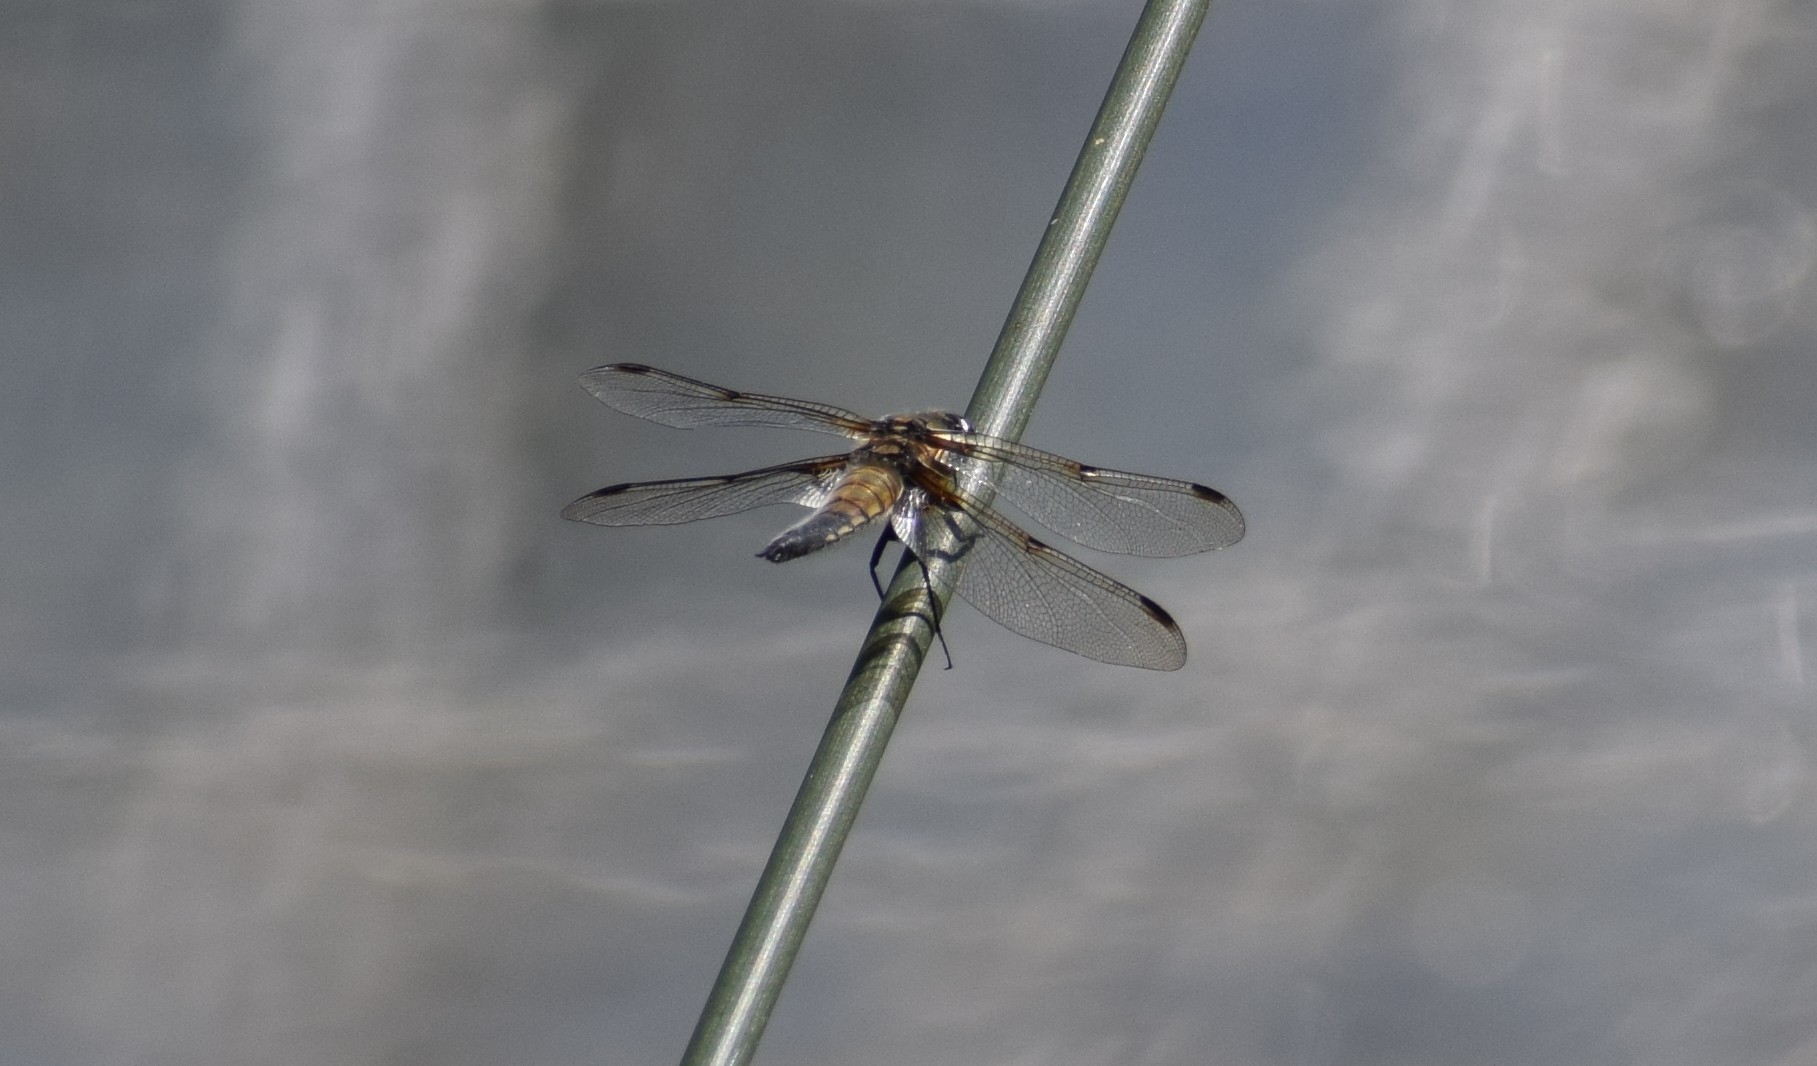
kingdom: Animalia
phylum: Arthropoda
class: Insecta
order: Odonata
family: Libellulidae
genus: Libellula
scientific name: Libellula quadrimaculata
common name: Four-spotted chaser
